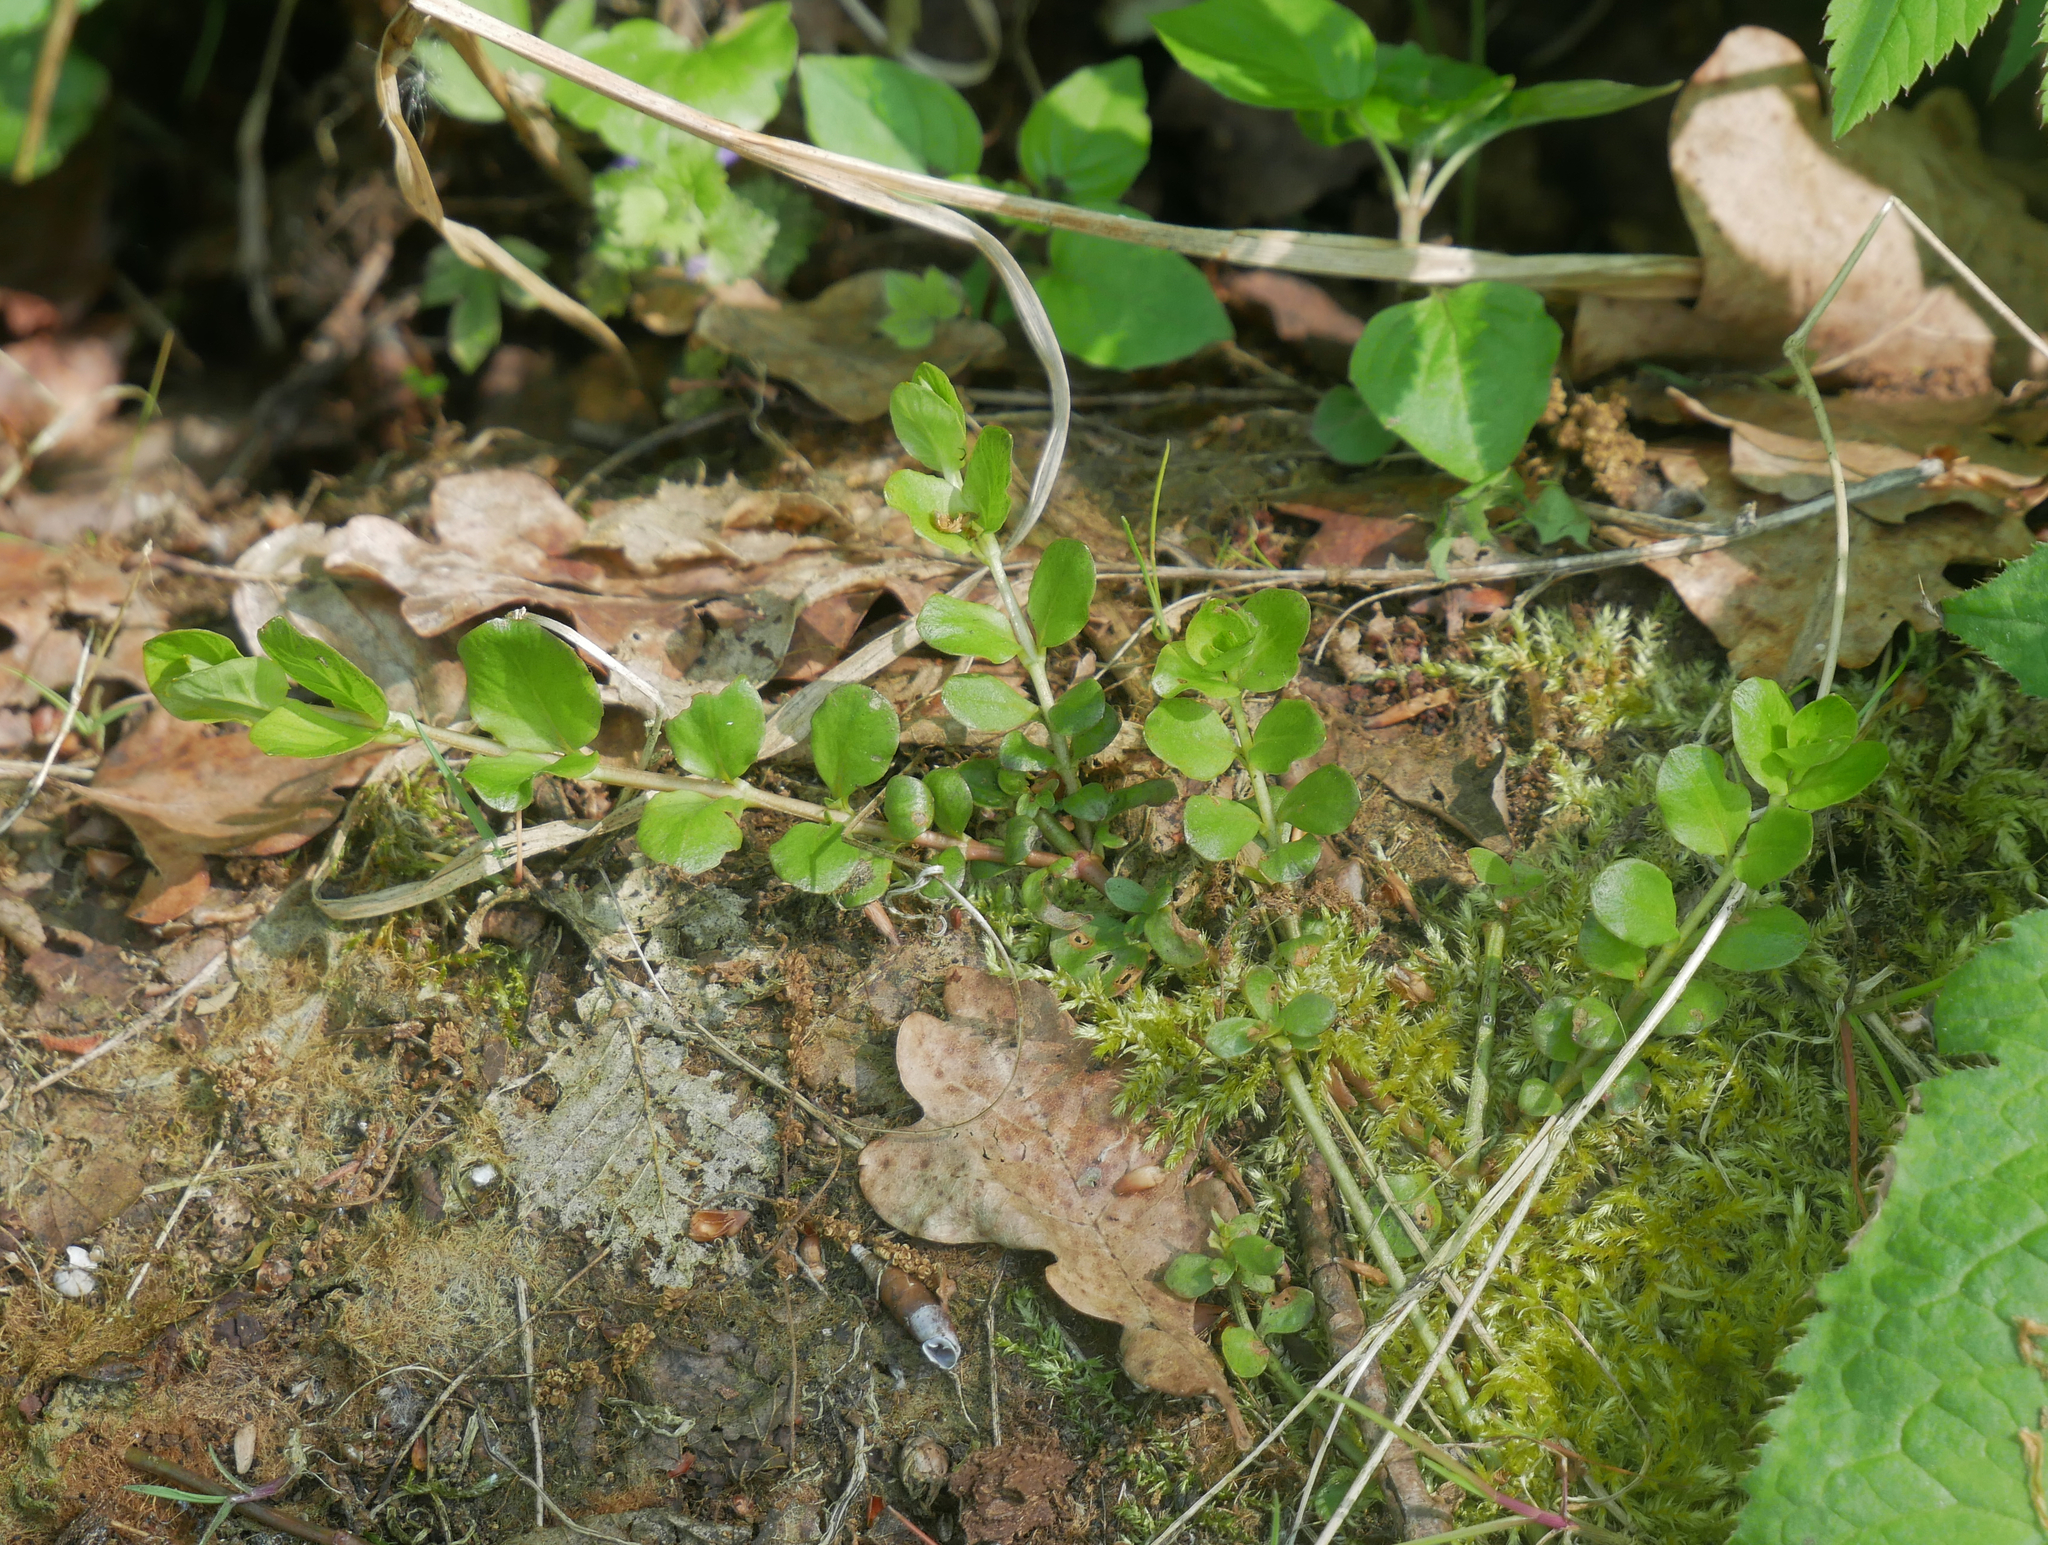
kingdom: Plantae
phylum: Tracheophyta
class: Magnoliopsida
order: Ericales
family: Primulaceae
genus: Lysimachia
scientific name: Lysimachia nummularia
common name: Moneywort
